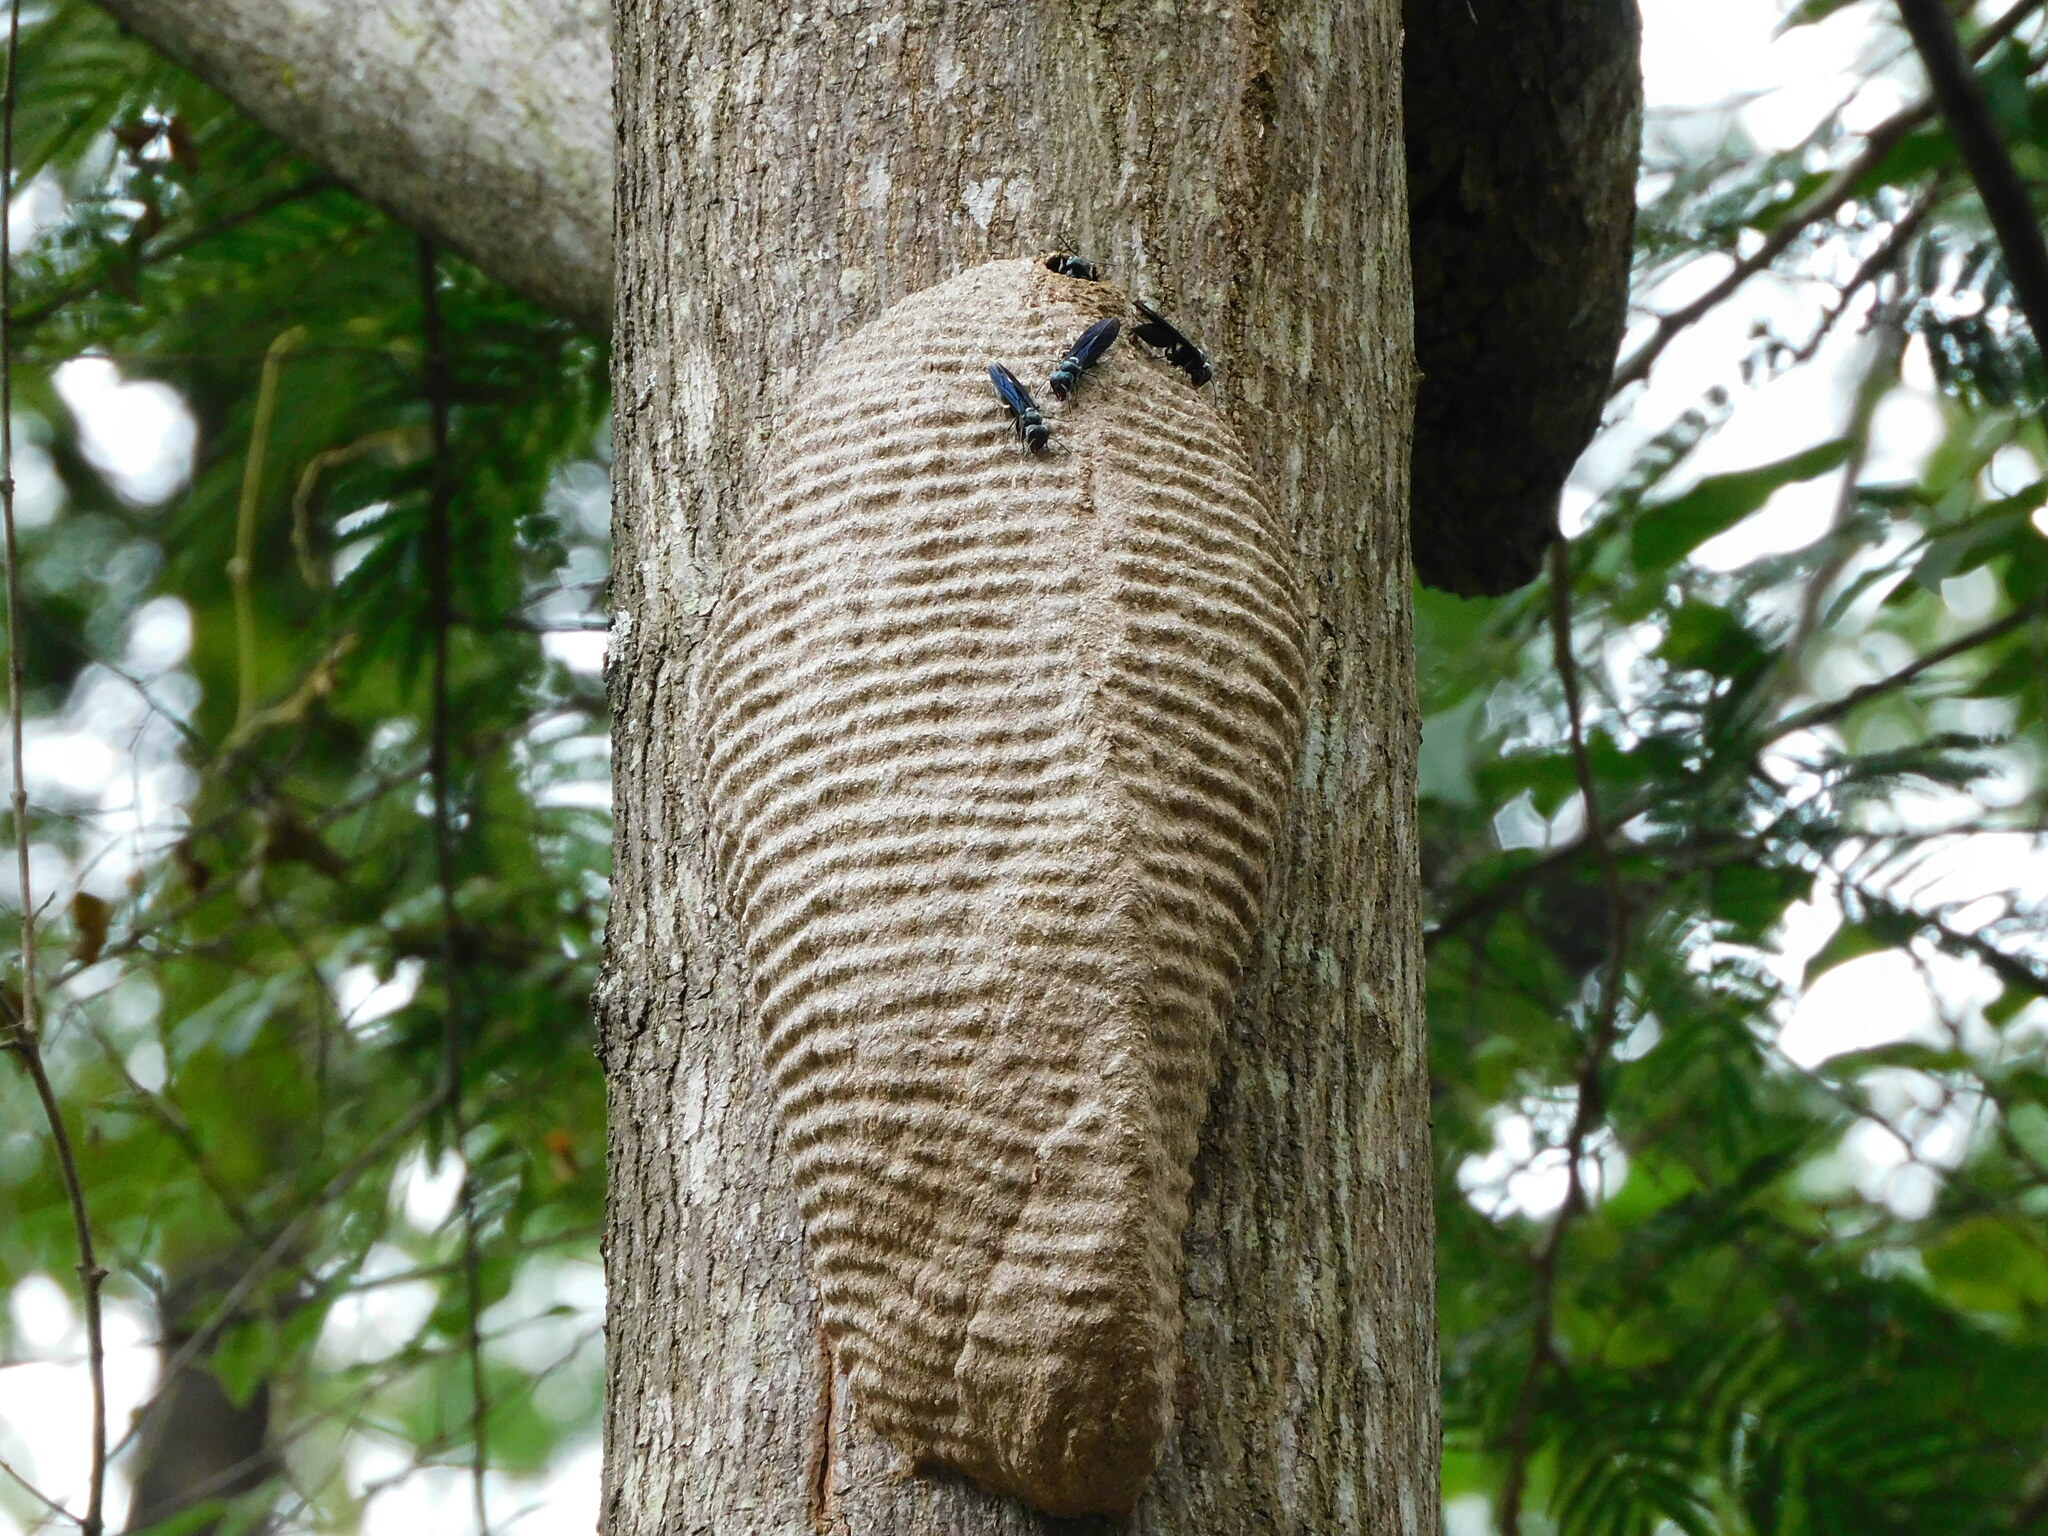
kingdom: Animalia
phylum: Arthropoda
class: Insecta
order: Hymenoptera
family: Vespidae
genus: Synoeca
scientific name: Synoeca septentrionalis
